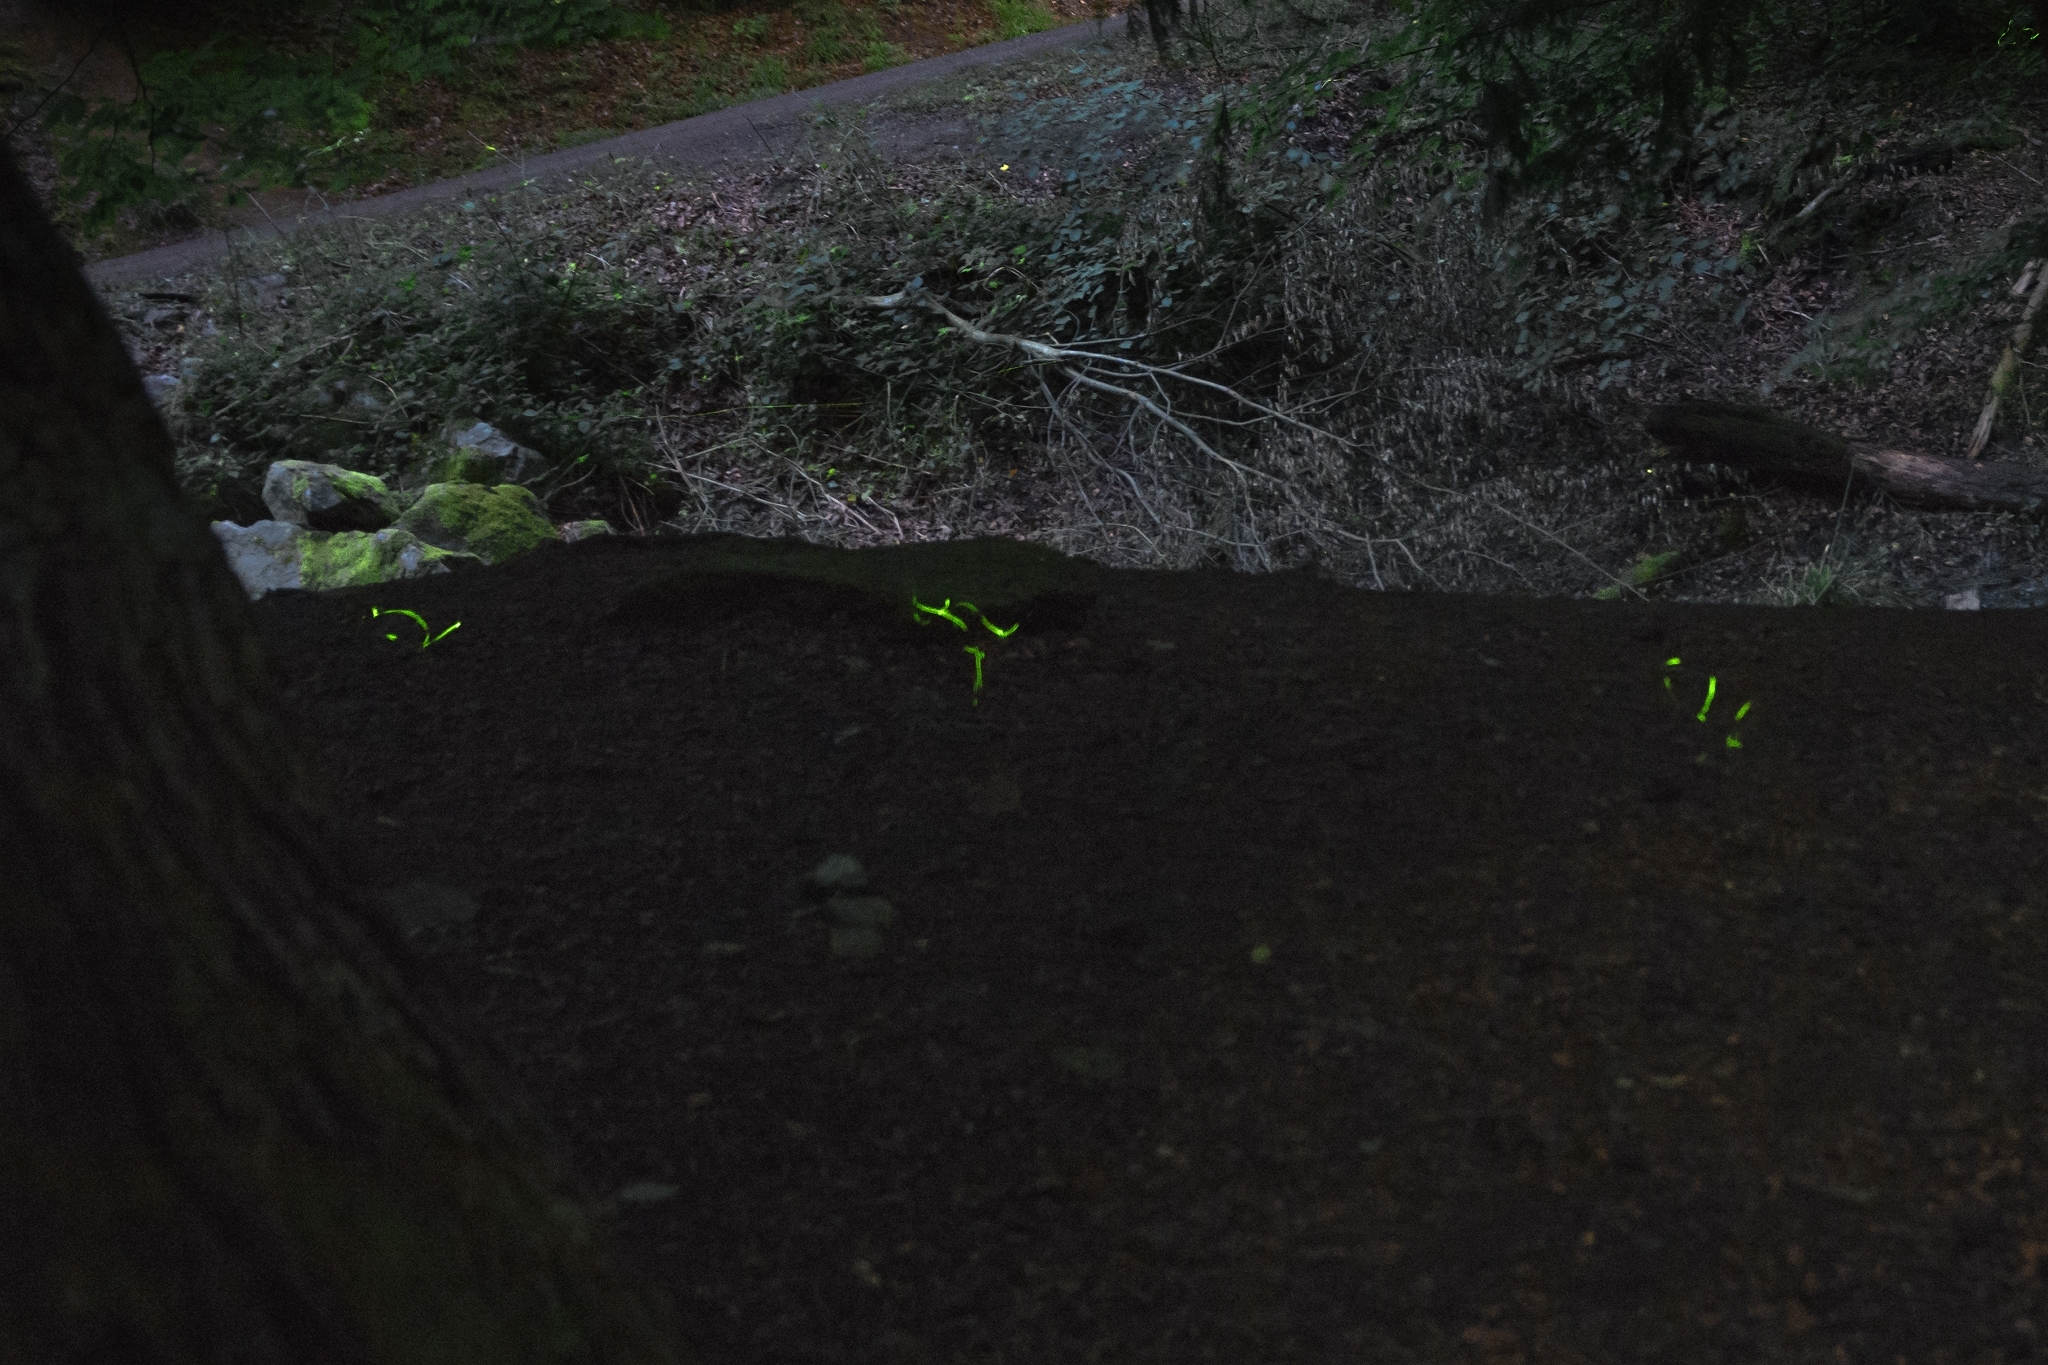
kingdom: Animalia
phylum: Arthropoda
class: Insecta
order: Coleoptera
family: Lampyridae
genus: Lamprohiza
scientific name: Lamprohiza splendidula
